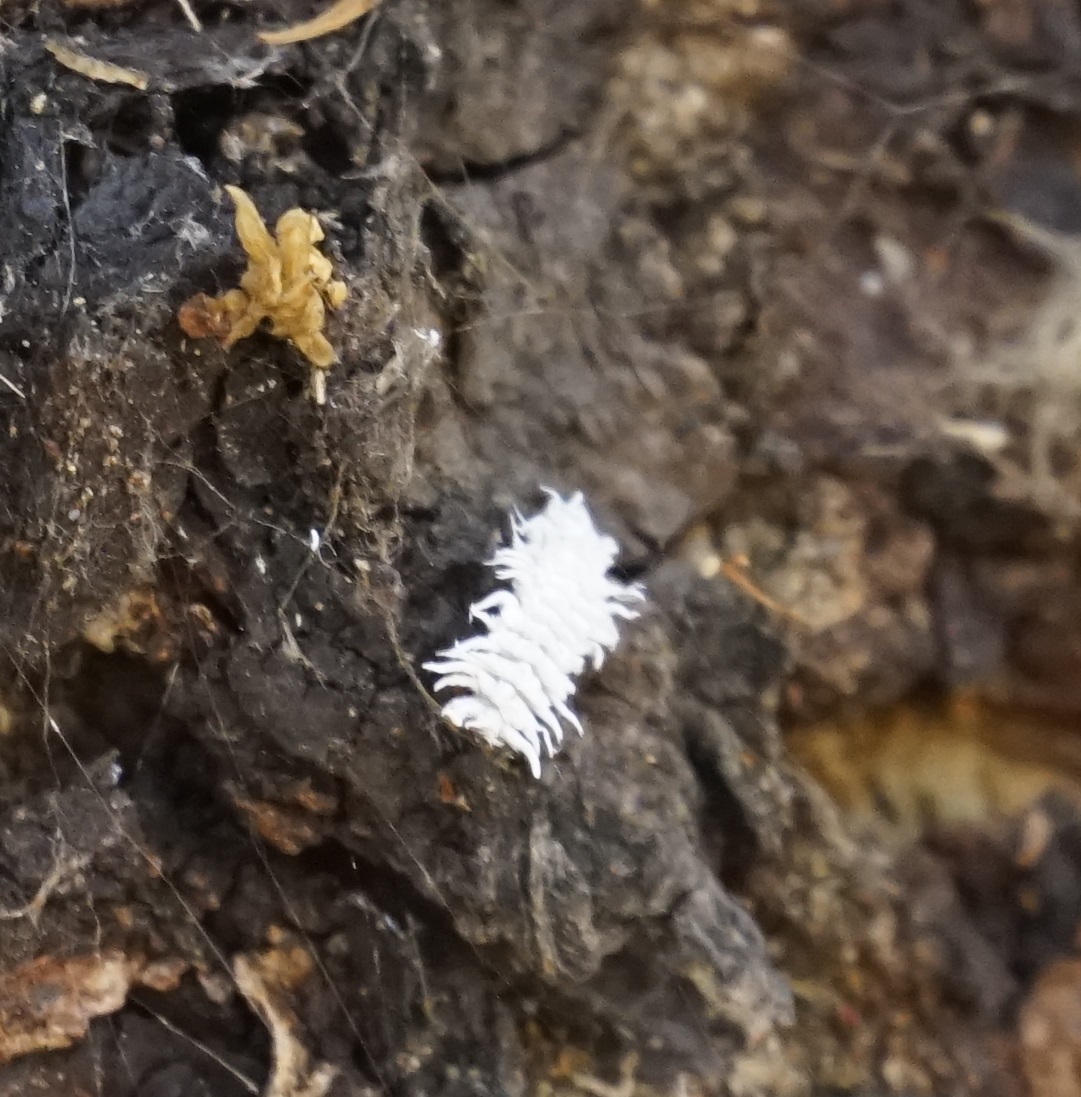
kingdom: Animalia
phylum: Arthropoda
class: Insecta
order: Coleoptera
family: Coccinellidae
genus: Cryptolaemus
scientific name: Cryptolaemus montrouzieri
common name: Mealybug destroyer
